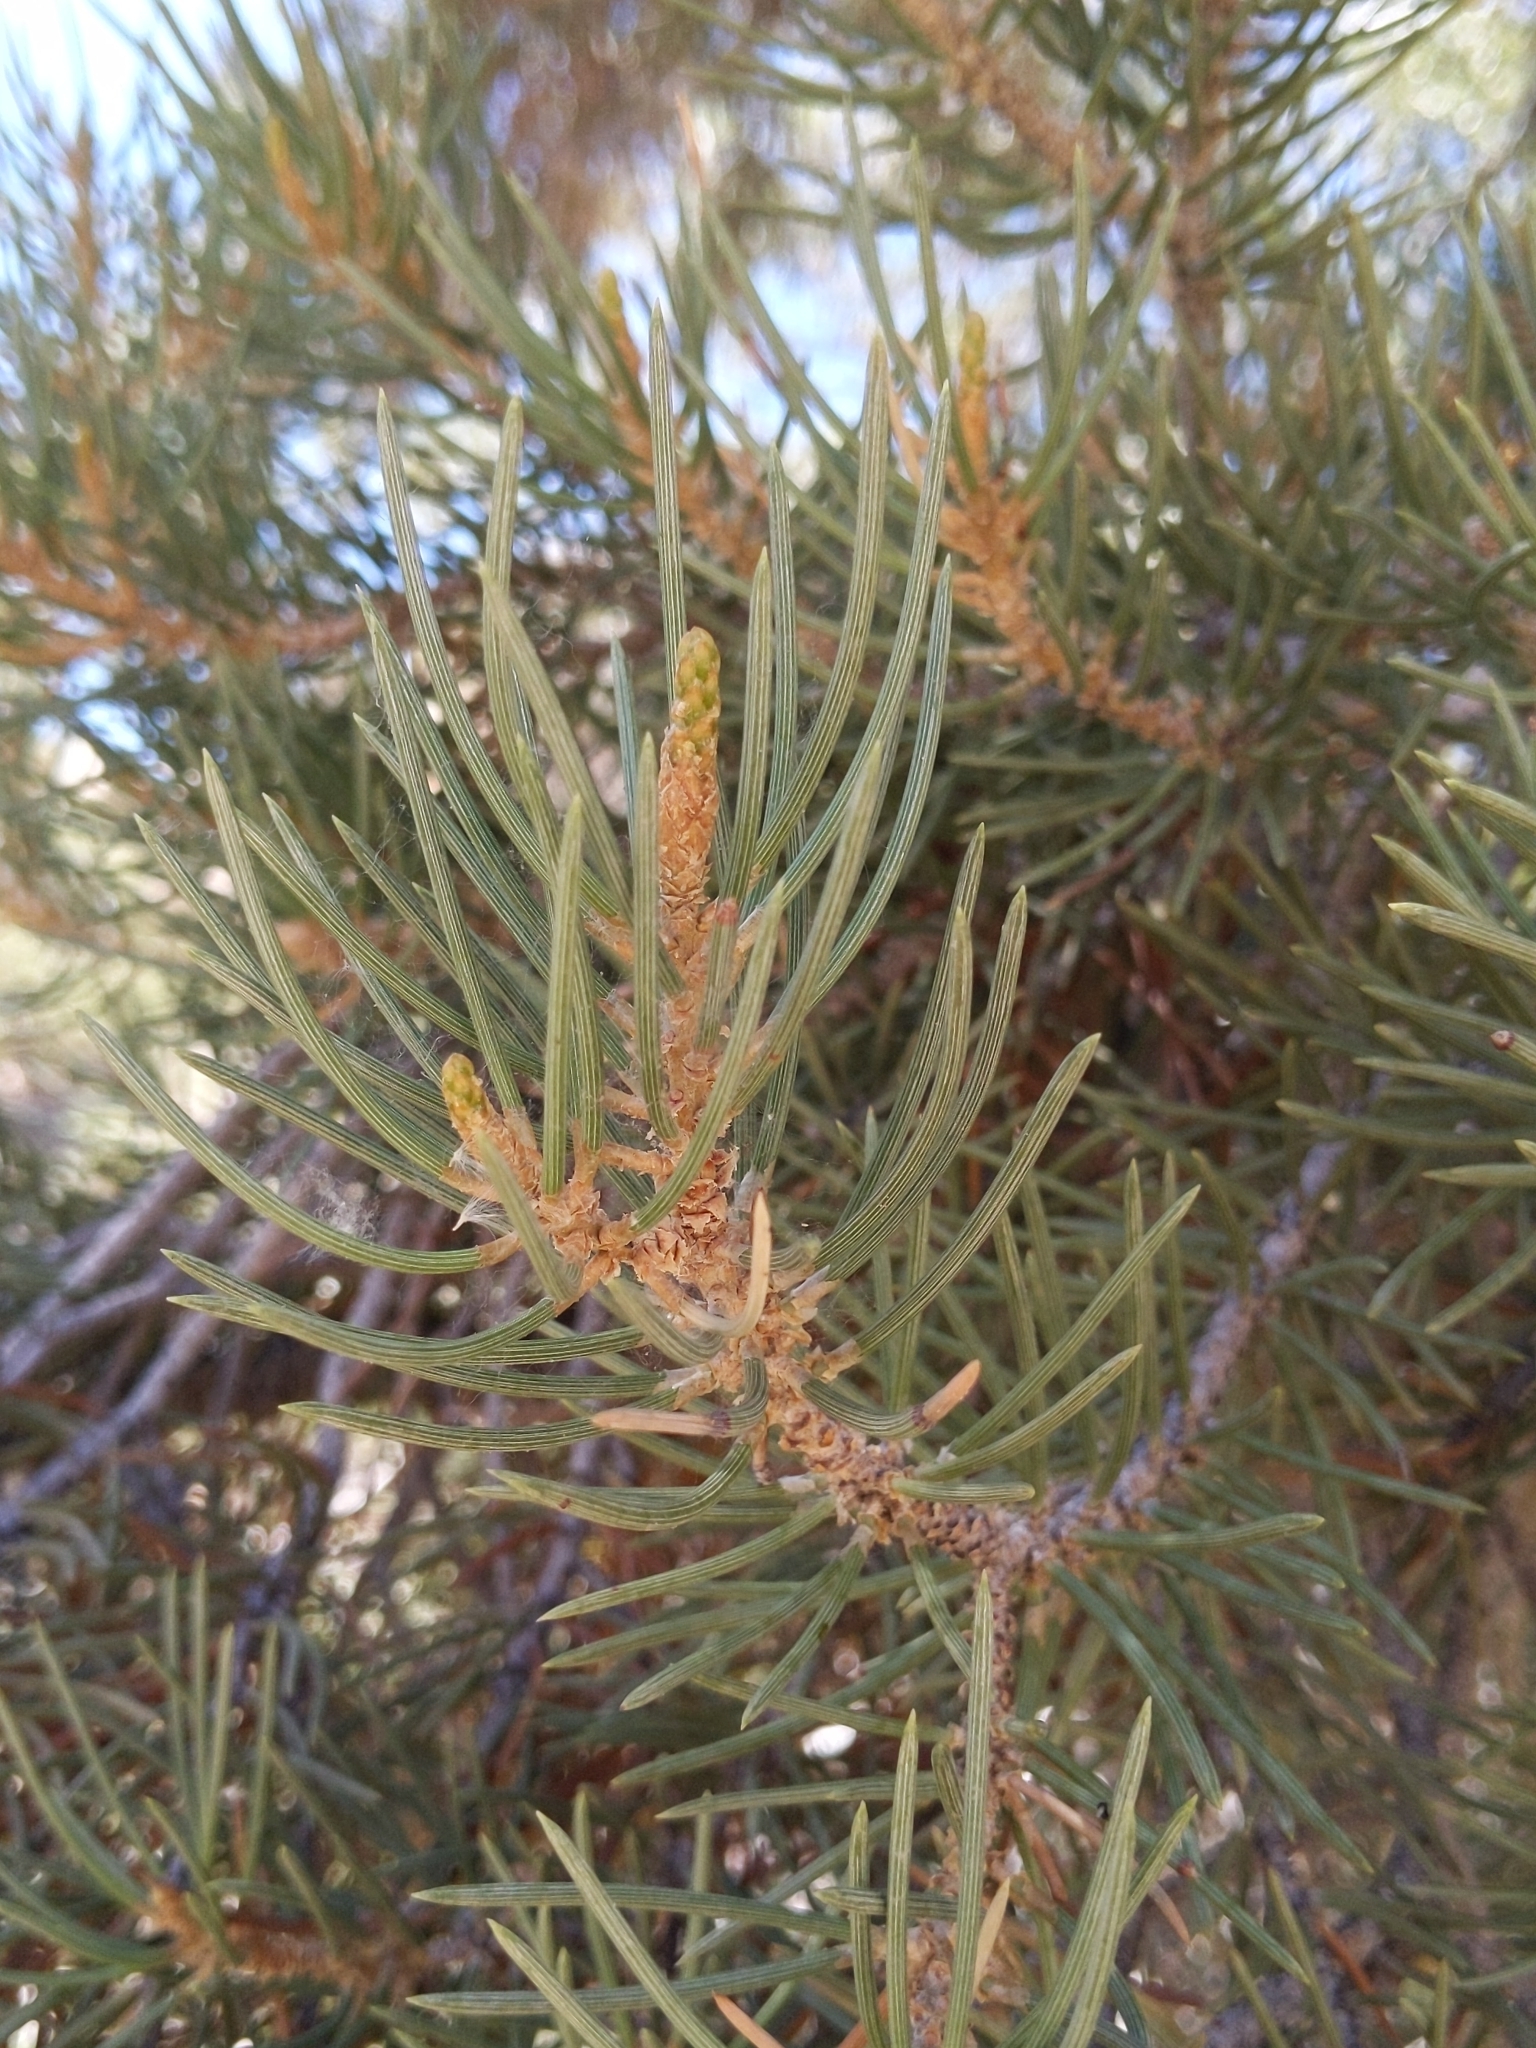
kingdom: Plantae
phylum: Tracheophyta
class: Pinopsida
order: Pinales
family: Pinaceae
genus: Pinus
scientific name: Pinus monophylla
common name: One-leaved nut pine
